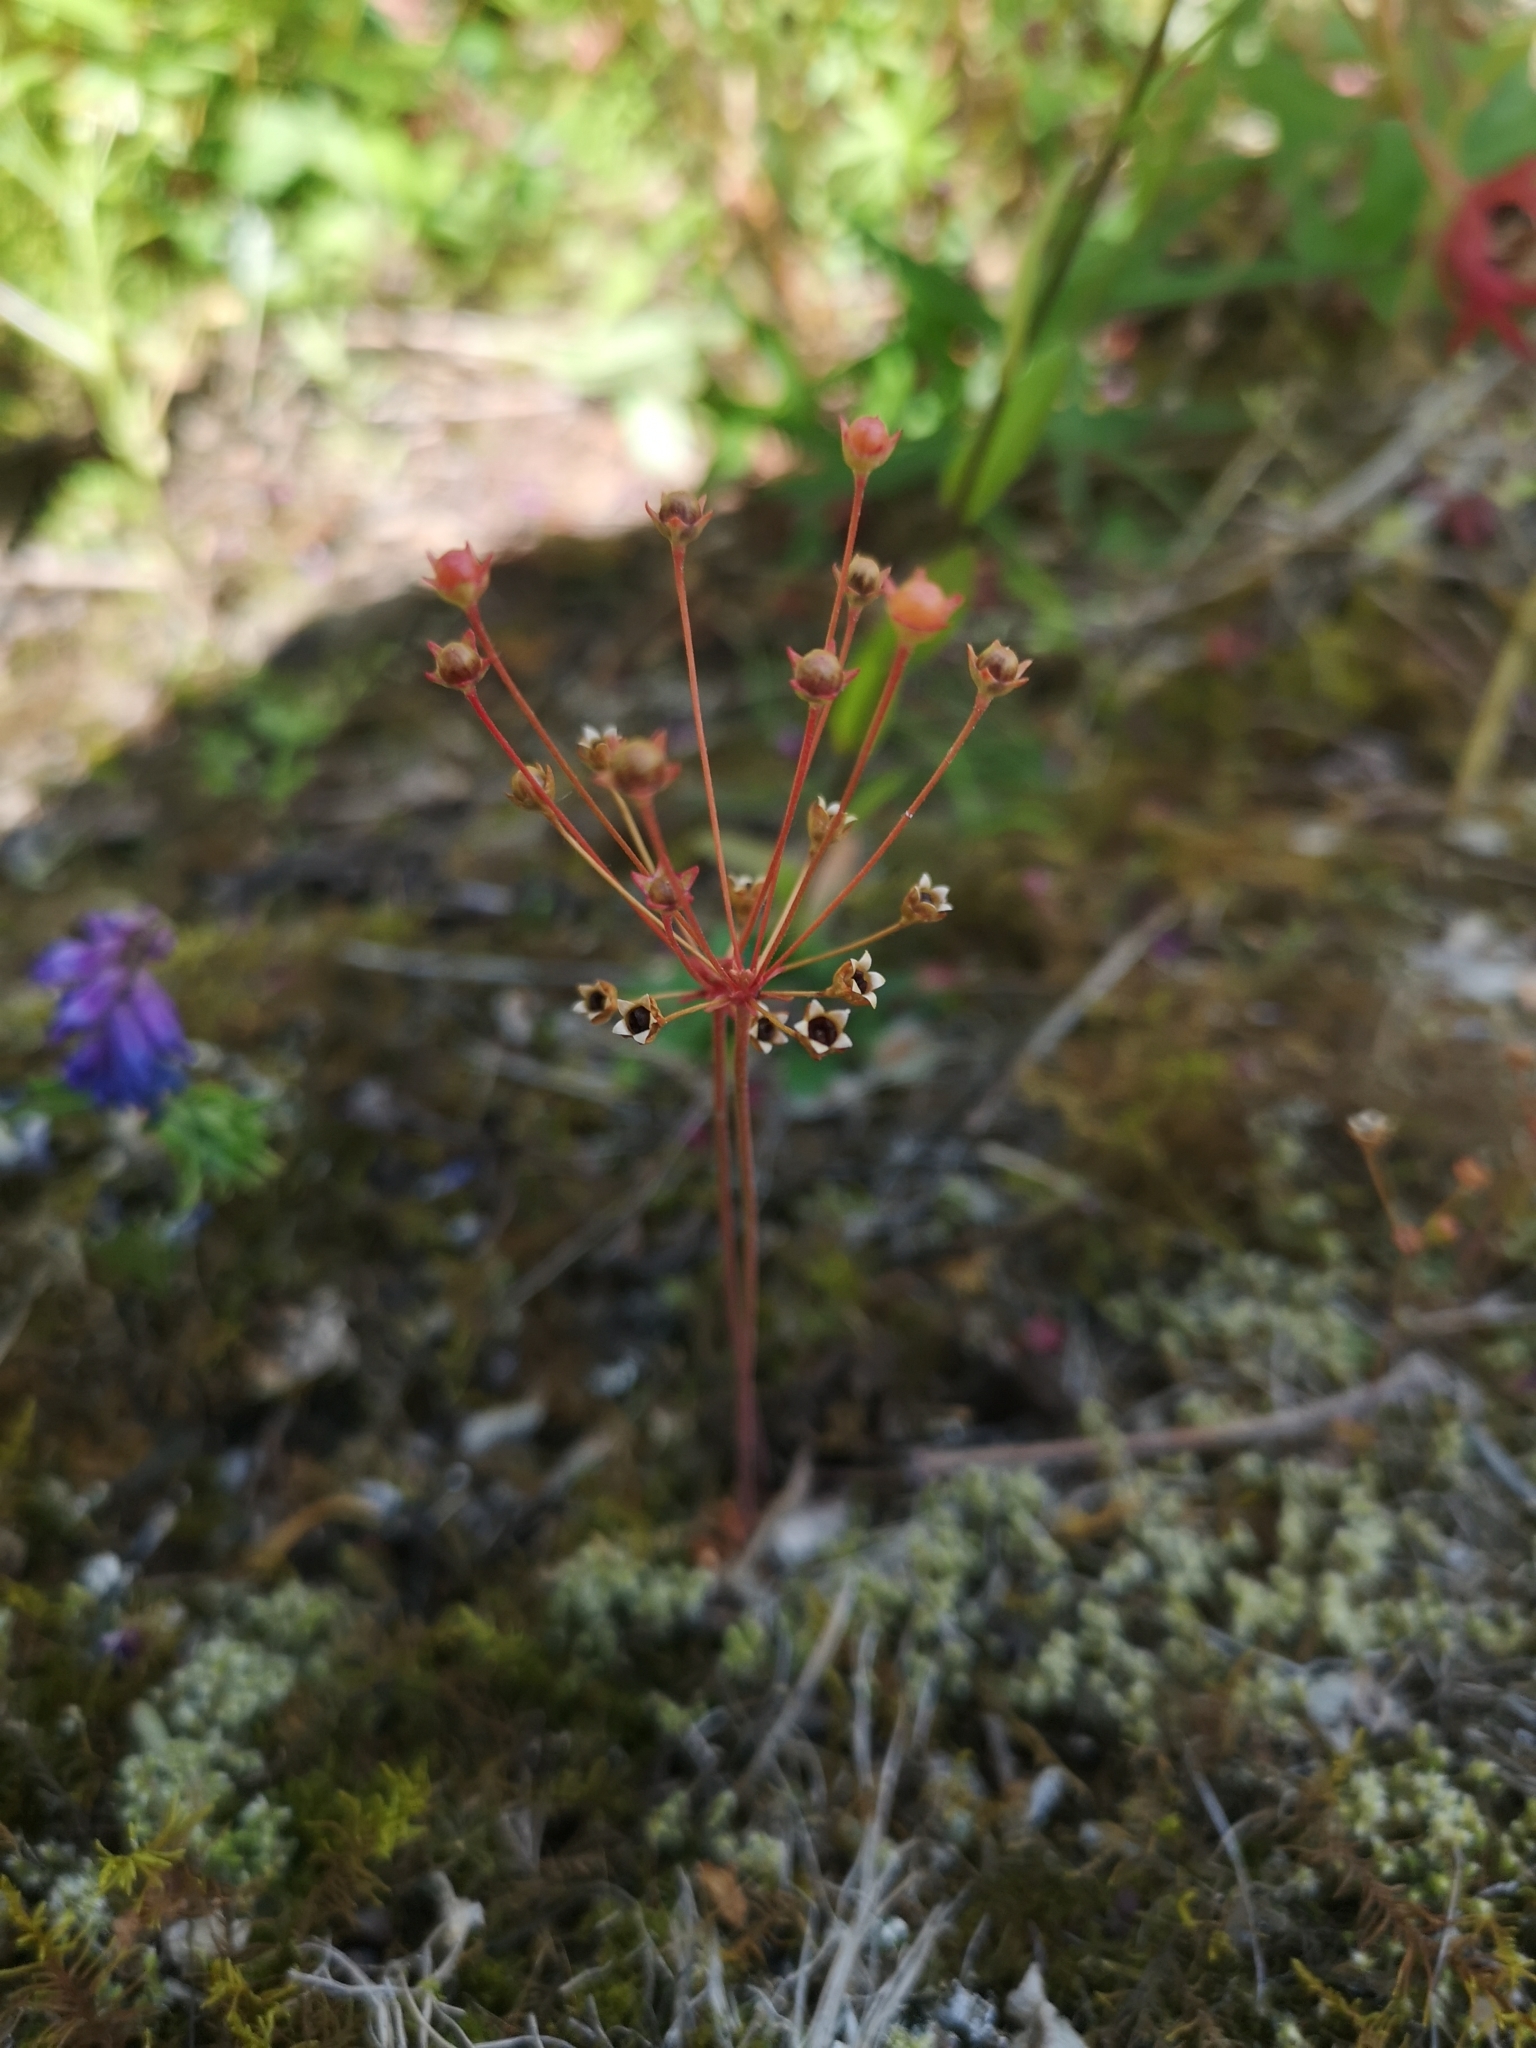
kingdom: Plantae
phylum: Tracheophyta
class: Magnoliopsida
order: Ericales
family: Primulaceae
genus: Androsace
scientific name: Androsace septentrionalis
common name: Hairy northern fairy-candelabra
